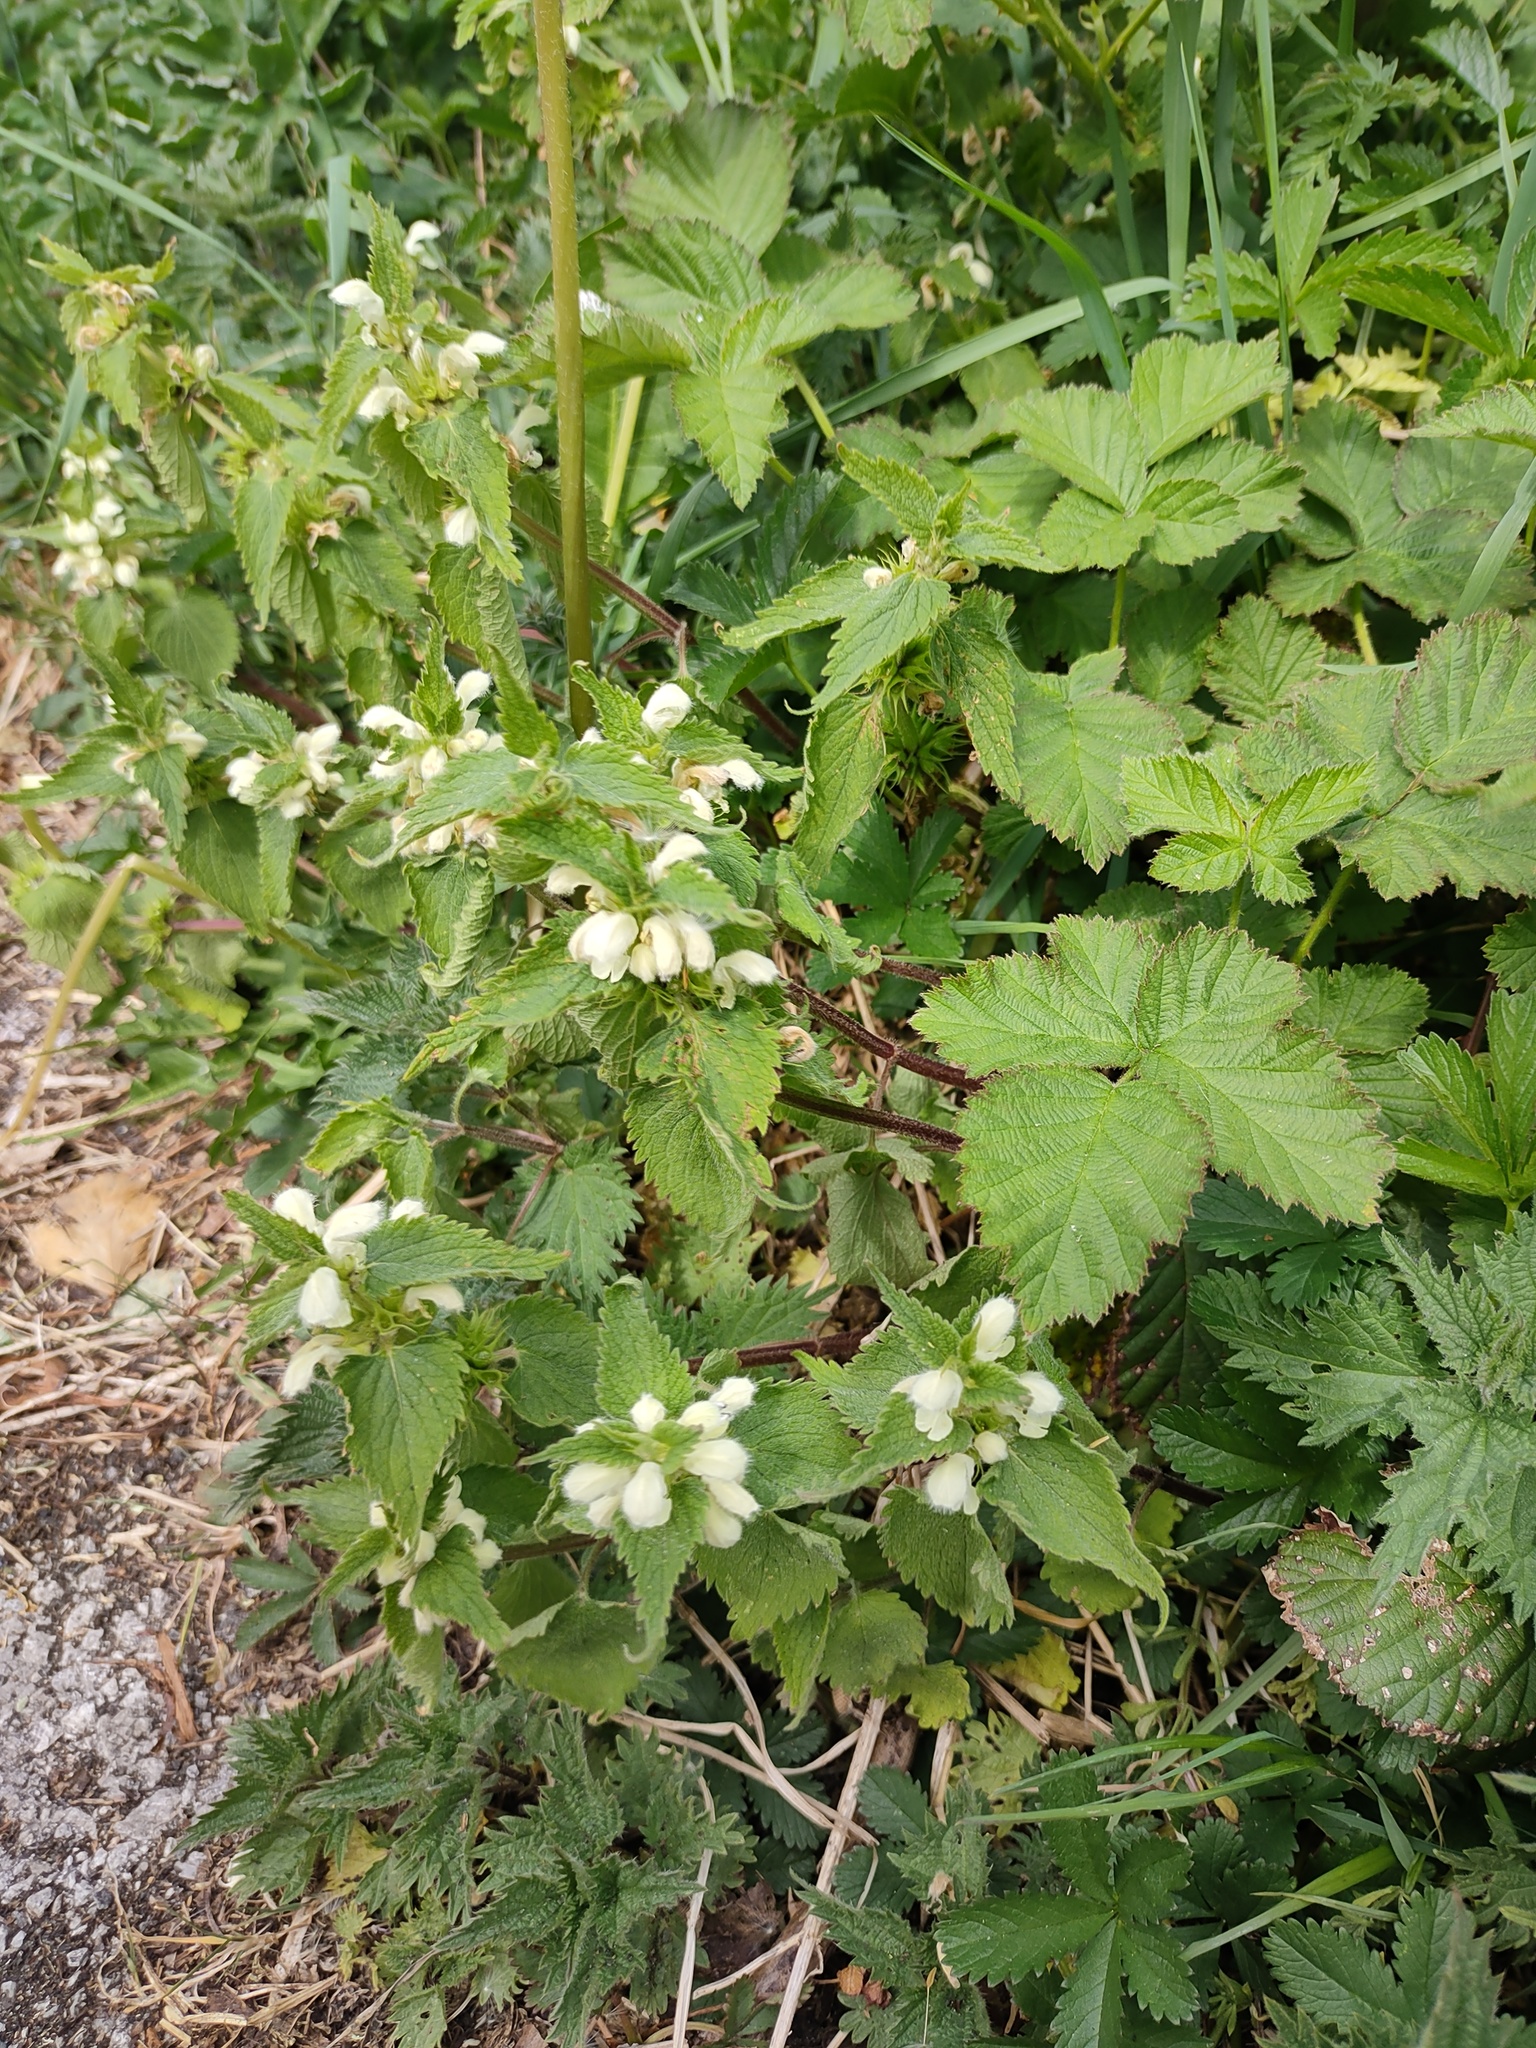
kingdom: Plantae
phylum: Tracheophyta
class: Magnoliopsida
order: Lamiales
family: Lamiaceae
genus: Lamium
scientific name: Lamium album
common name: White dead-nettle
